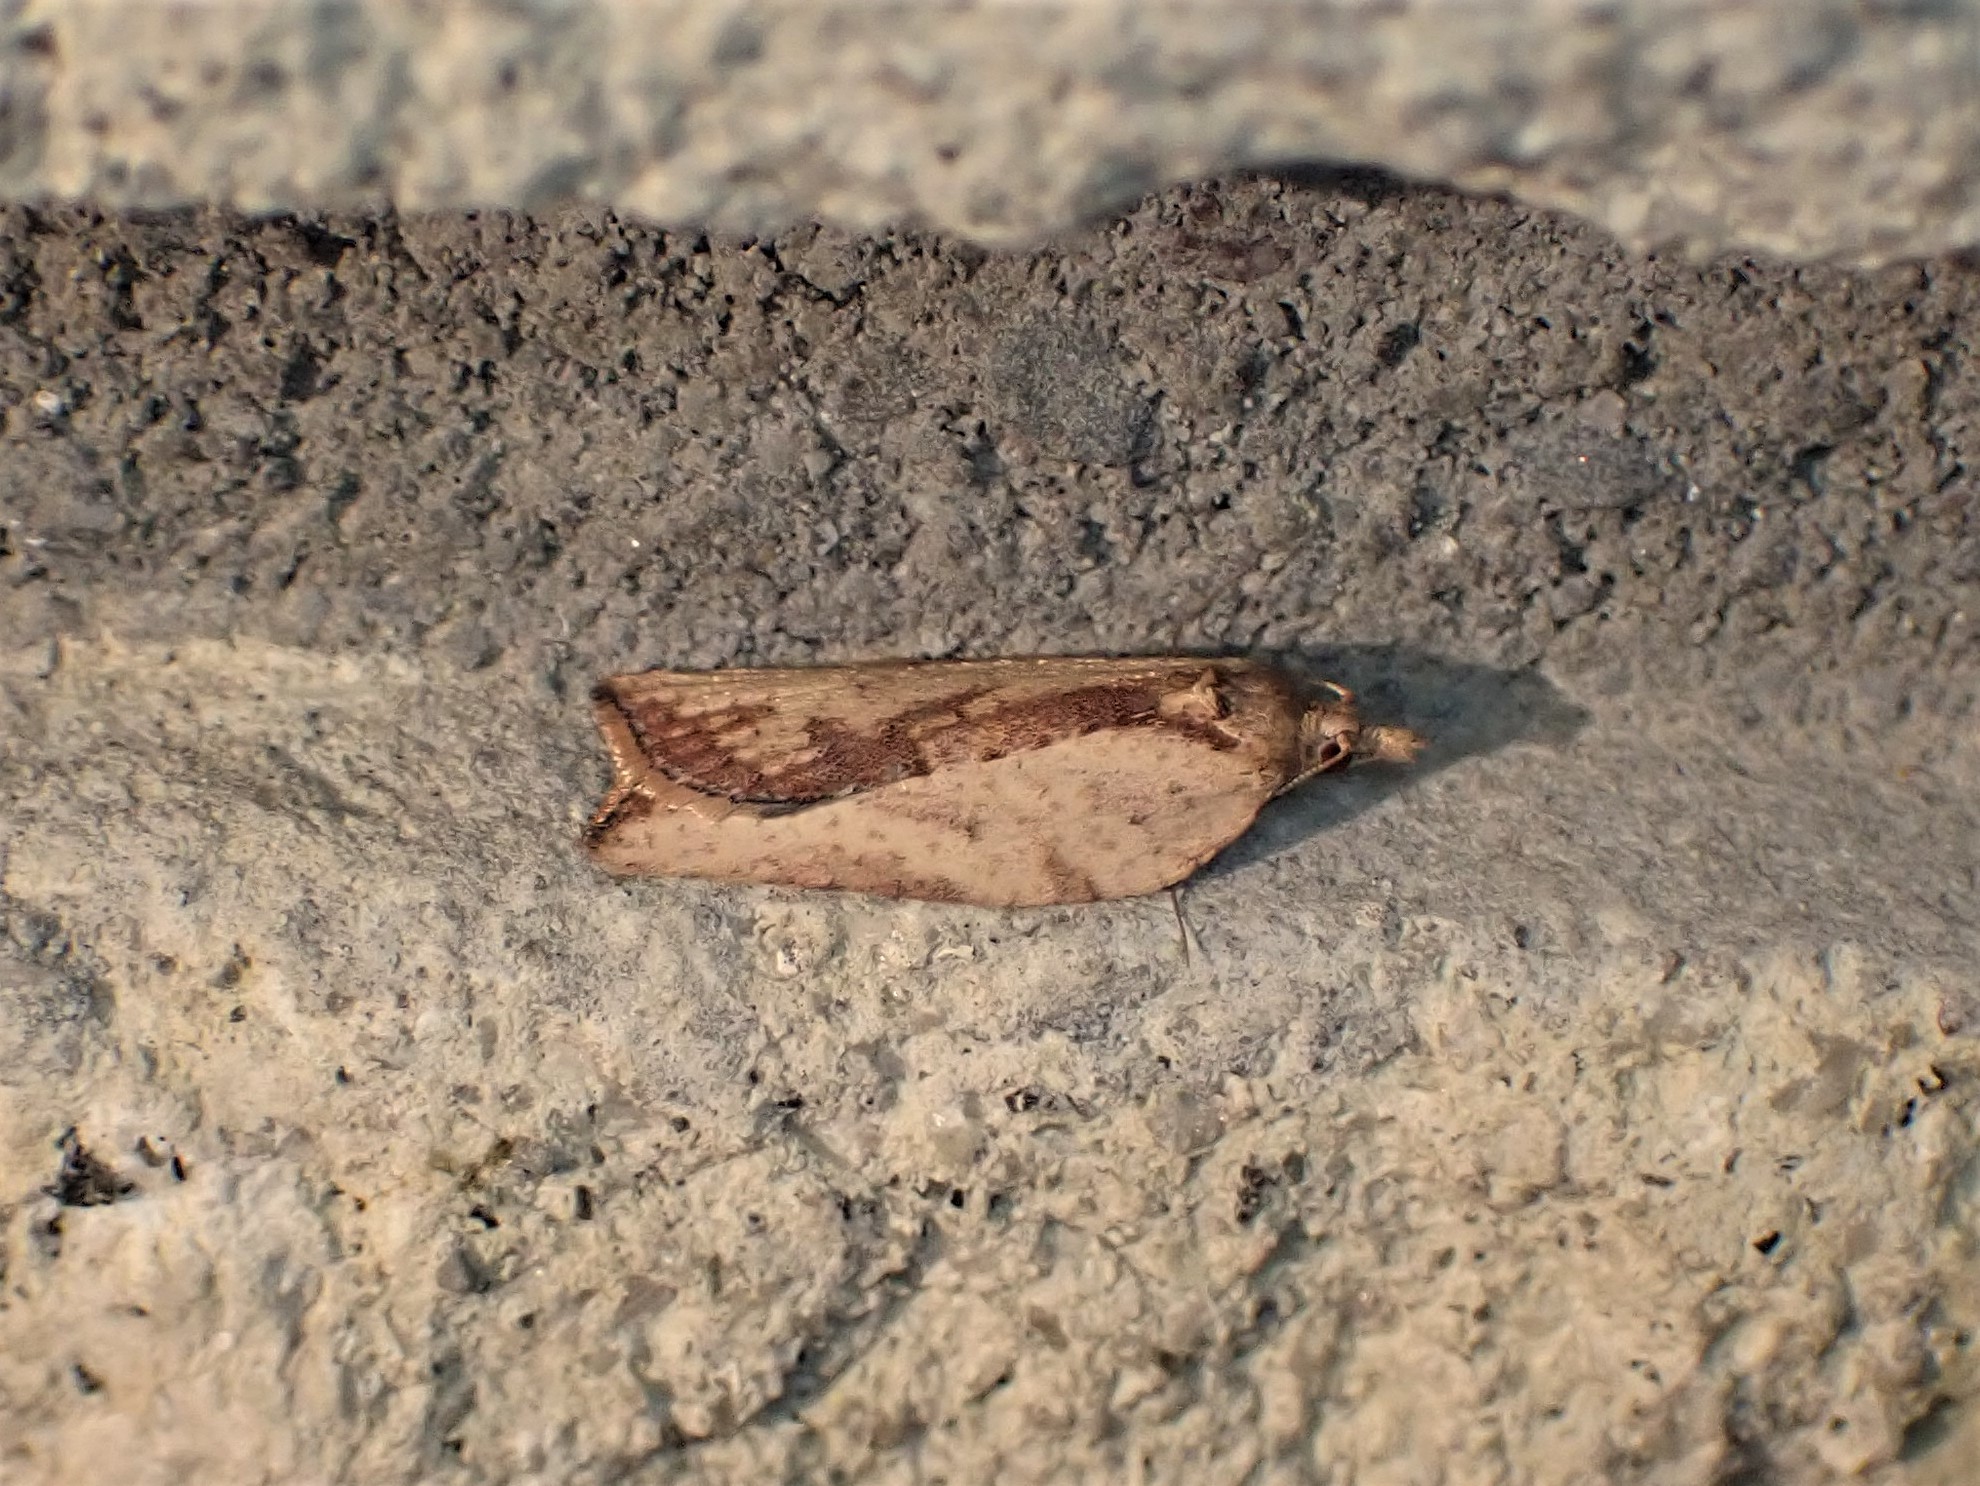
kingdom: Animalia
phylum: Arthropoda
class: Insecta
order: Lepidoptera
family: Tortricidae
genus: Epiphyas
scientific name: Epiphyas postvittana
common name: Light brown apple moth
